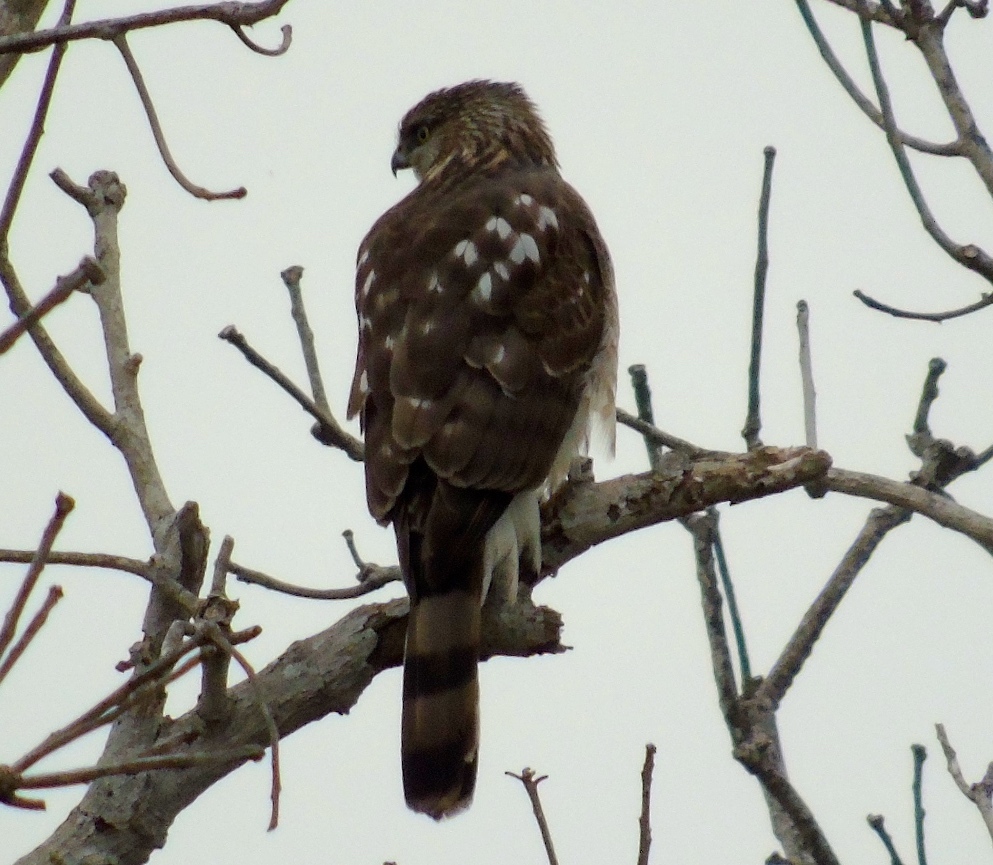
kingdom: Animalia
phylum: Chordata
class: Aves
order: Accipitriformes
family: Accipitridae
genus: Accipiter
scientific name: Accipiter cooperii
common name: Cooper's hawk
